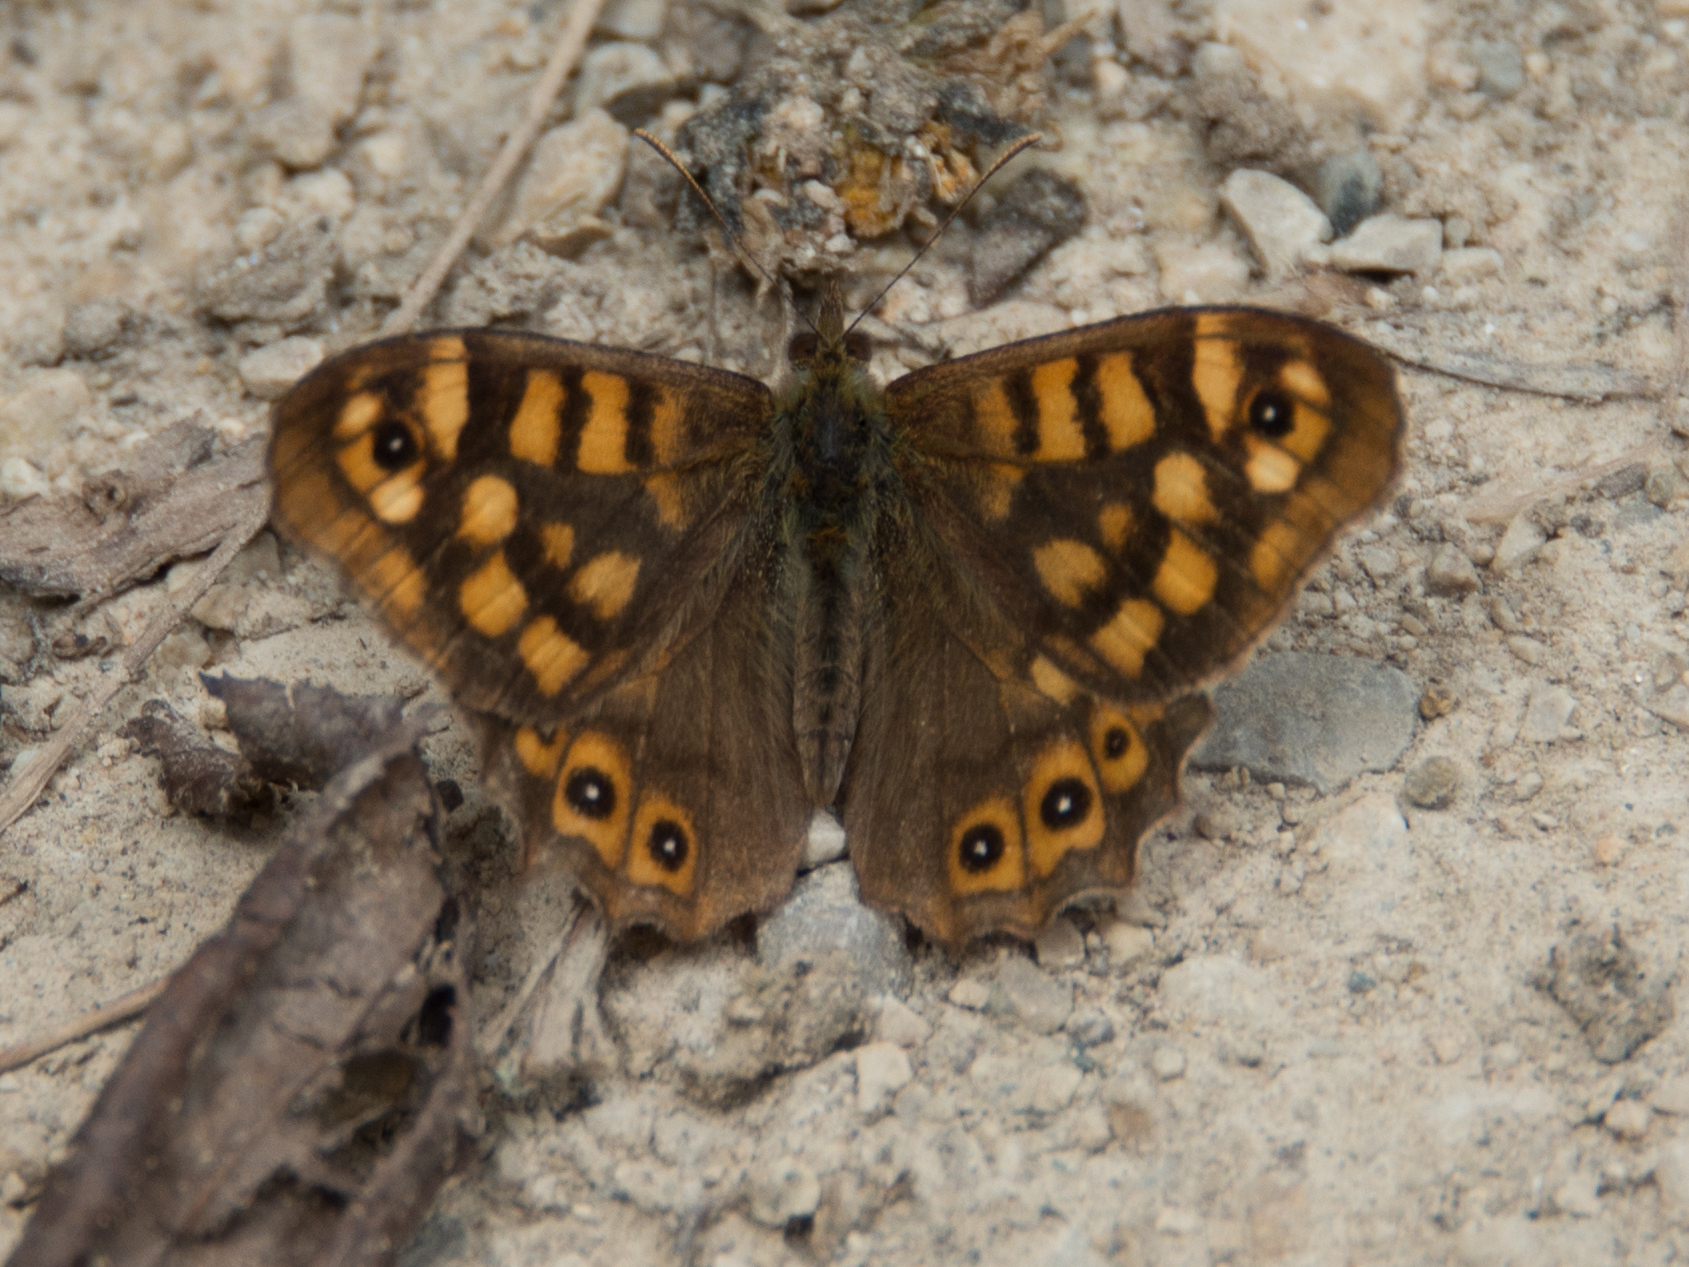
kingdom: Animalia
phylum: Arthropoda
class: Insecta
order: Lepidoptera
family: Nymphalidae
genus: Pararge
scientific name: Pararge aegeria
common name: Speckled wood
